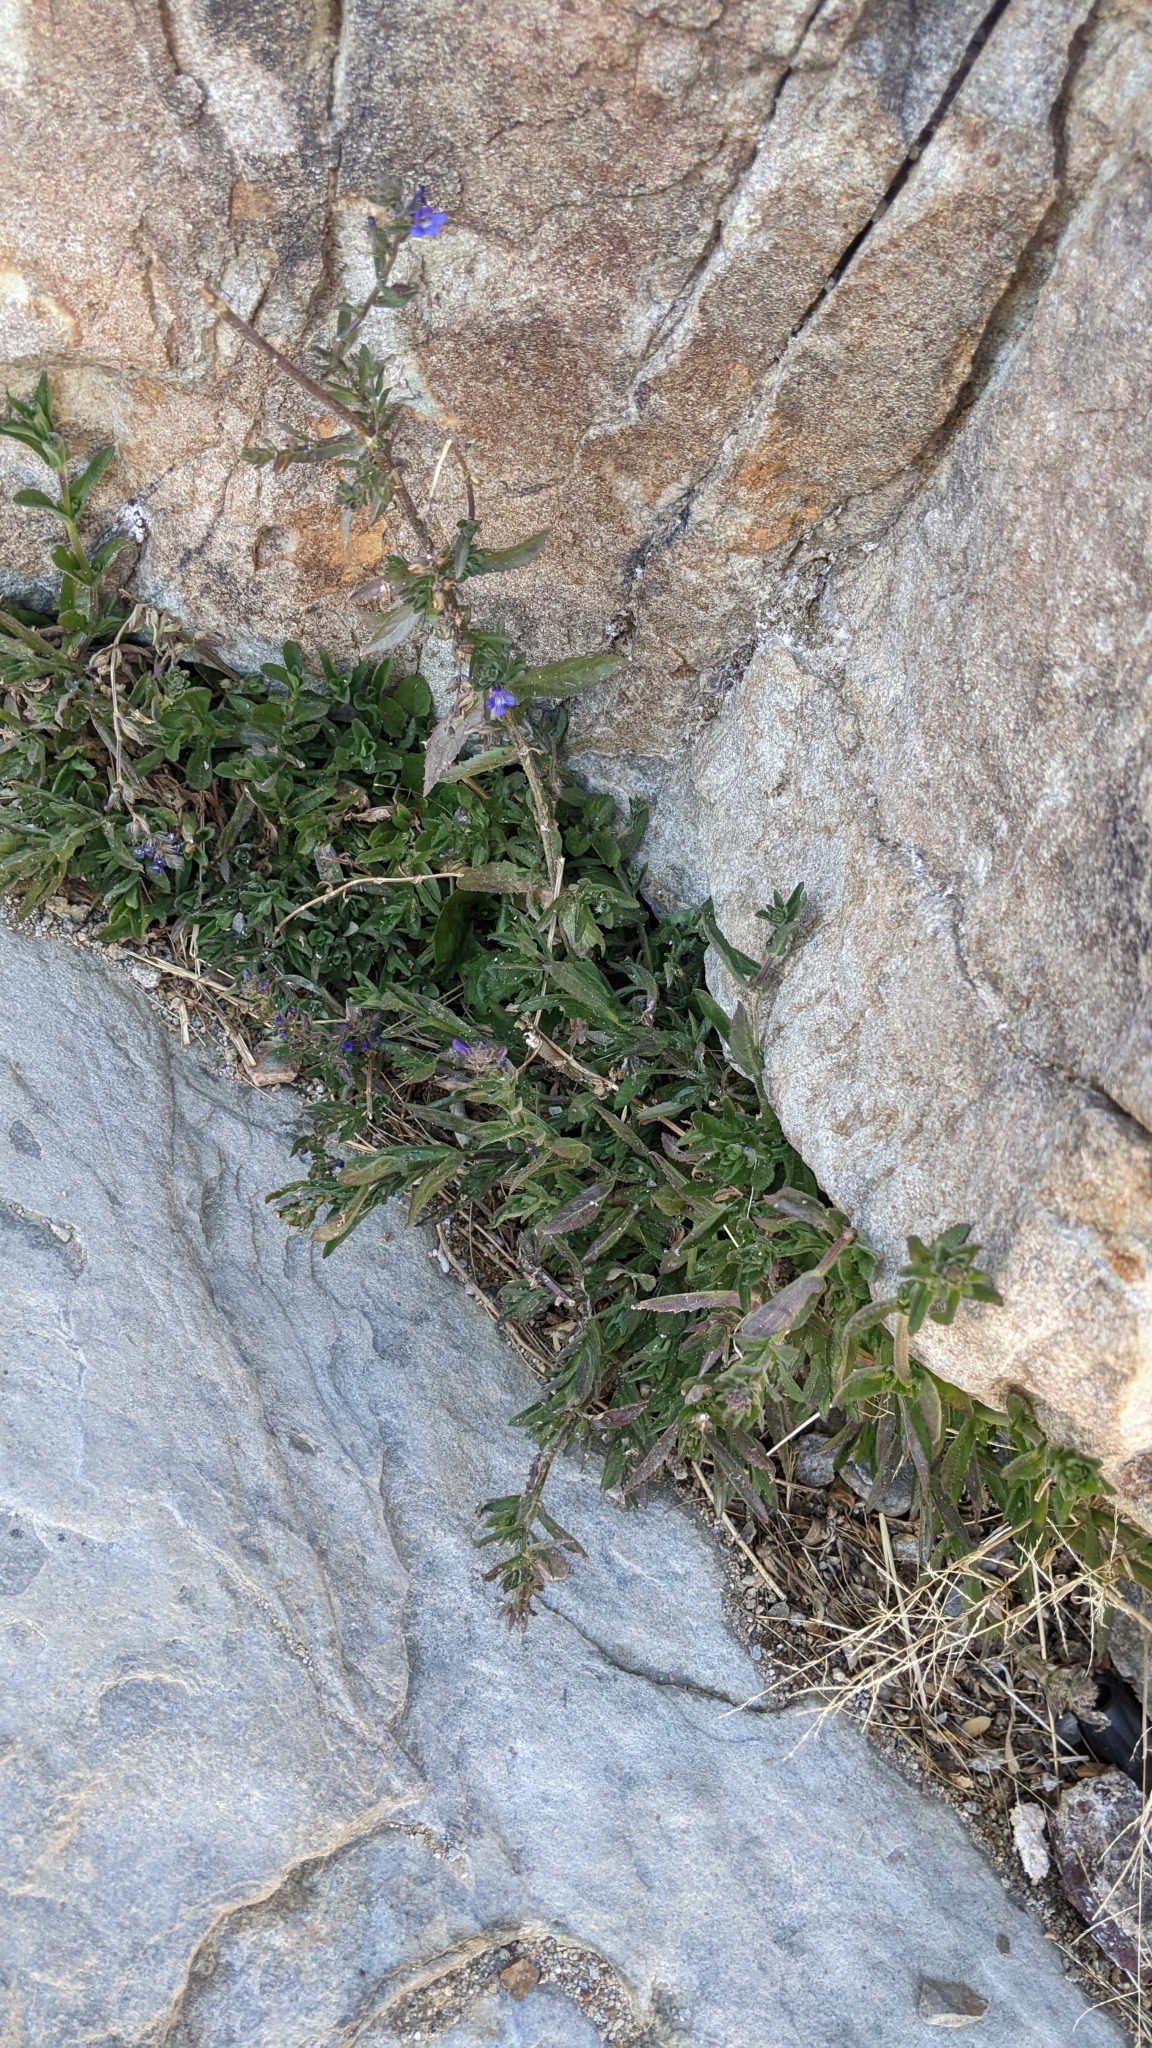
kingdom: Plantae
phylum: Tracheophyta
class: Magnoliopsida
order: Lamiales
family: Plantaginaceae
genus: Stemodia
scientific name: Stemodia durantifolia
